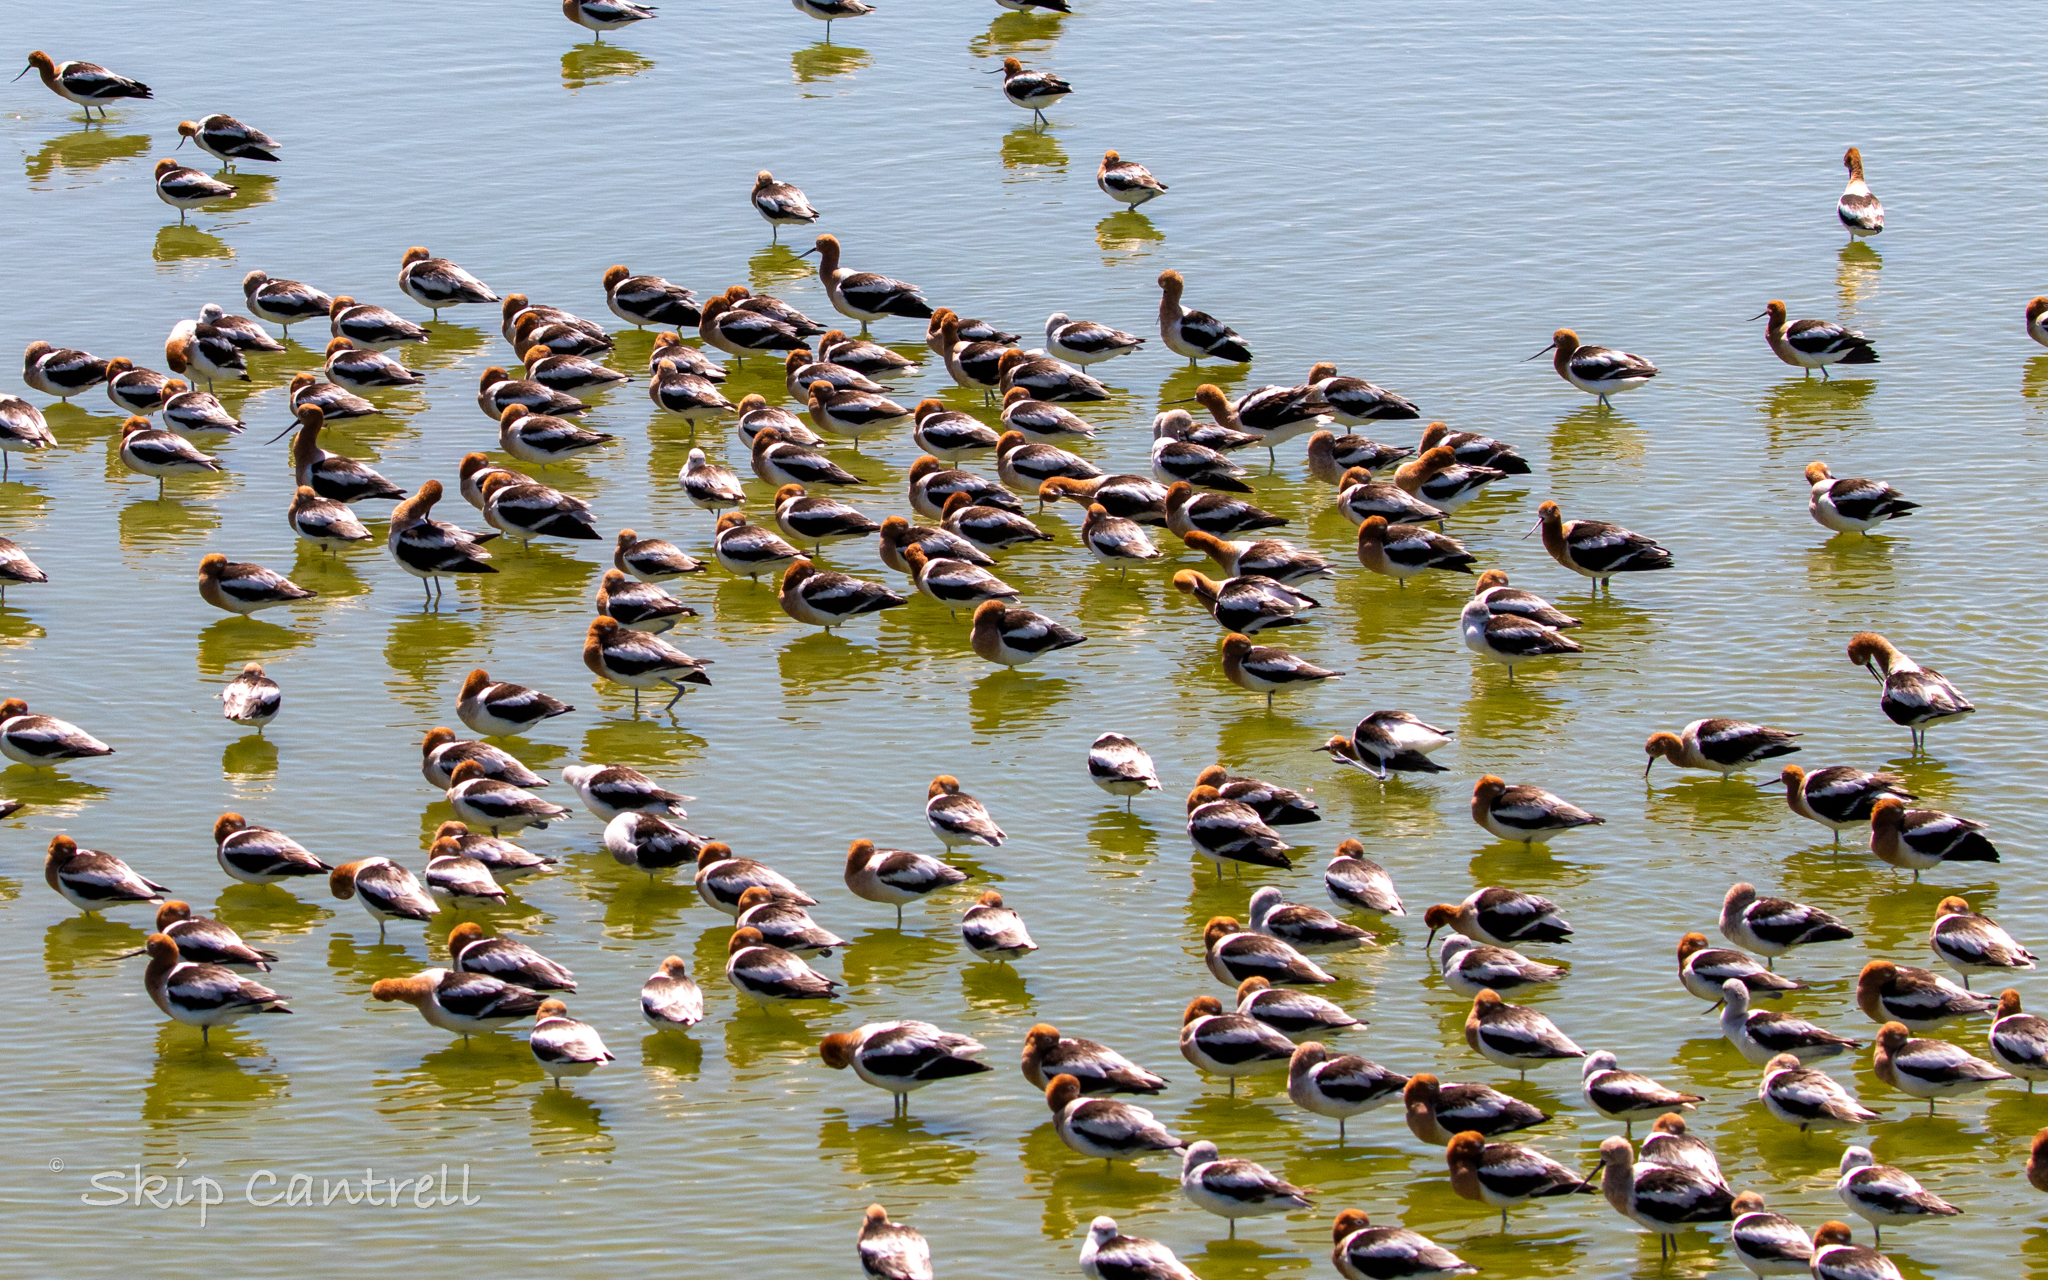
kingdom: Animalia
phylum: Chordata
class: Aves
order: Charadriiformes
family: Recurvirostridae
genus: Recurvirostra
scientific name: Recurvirostra americana
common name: American avocet
